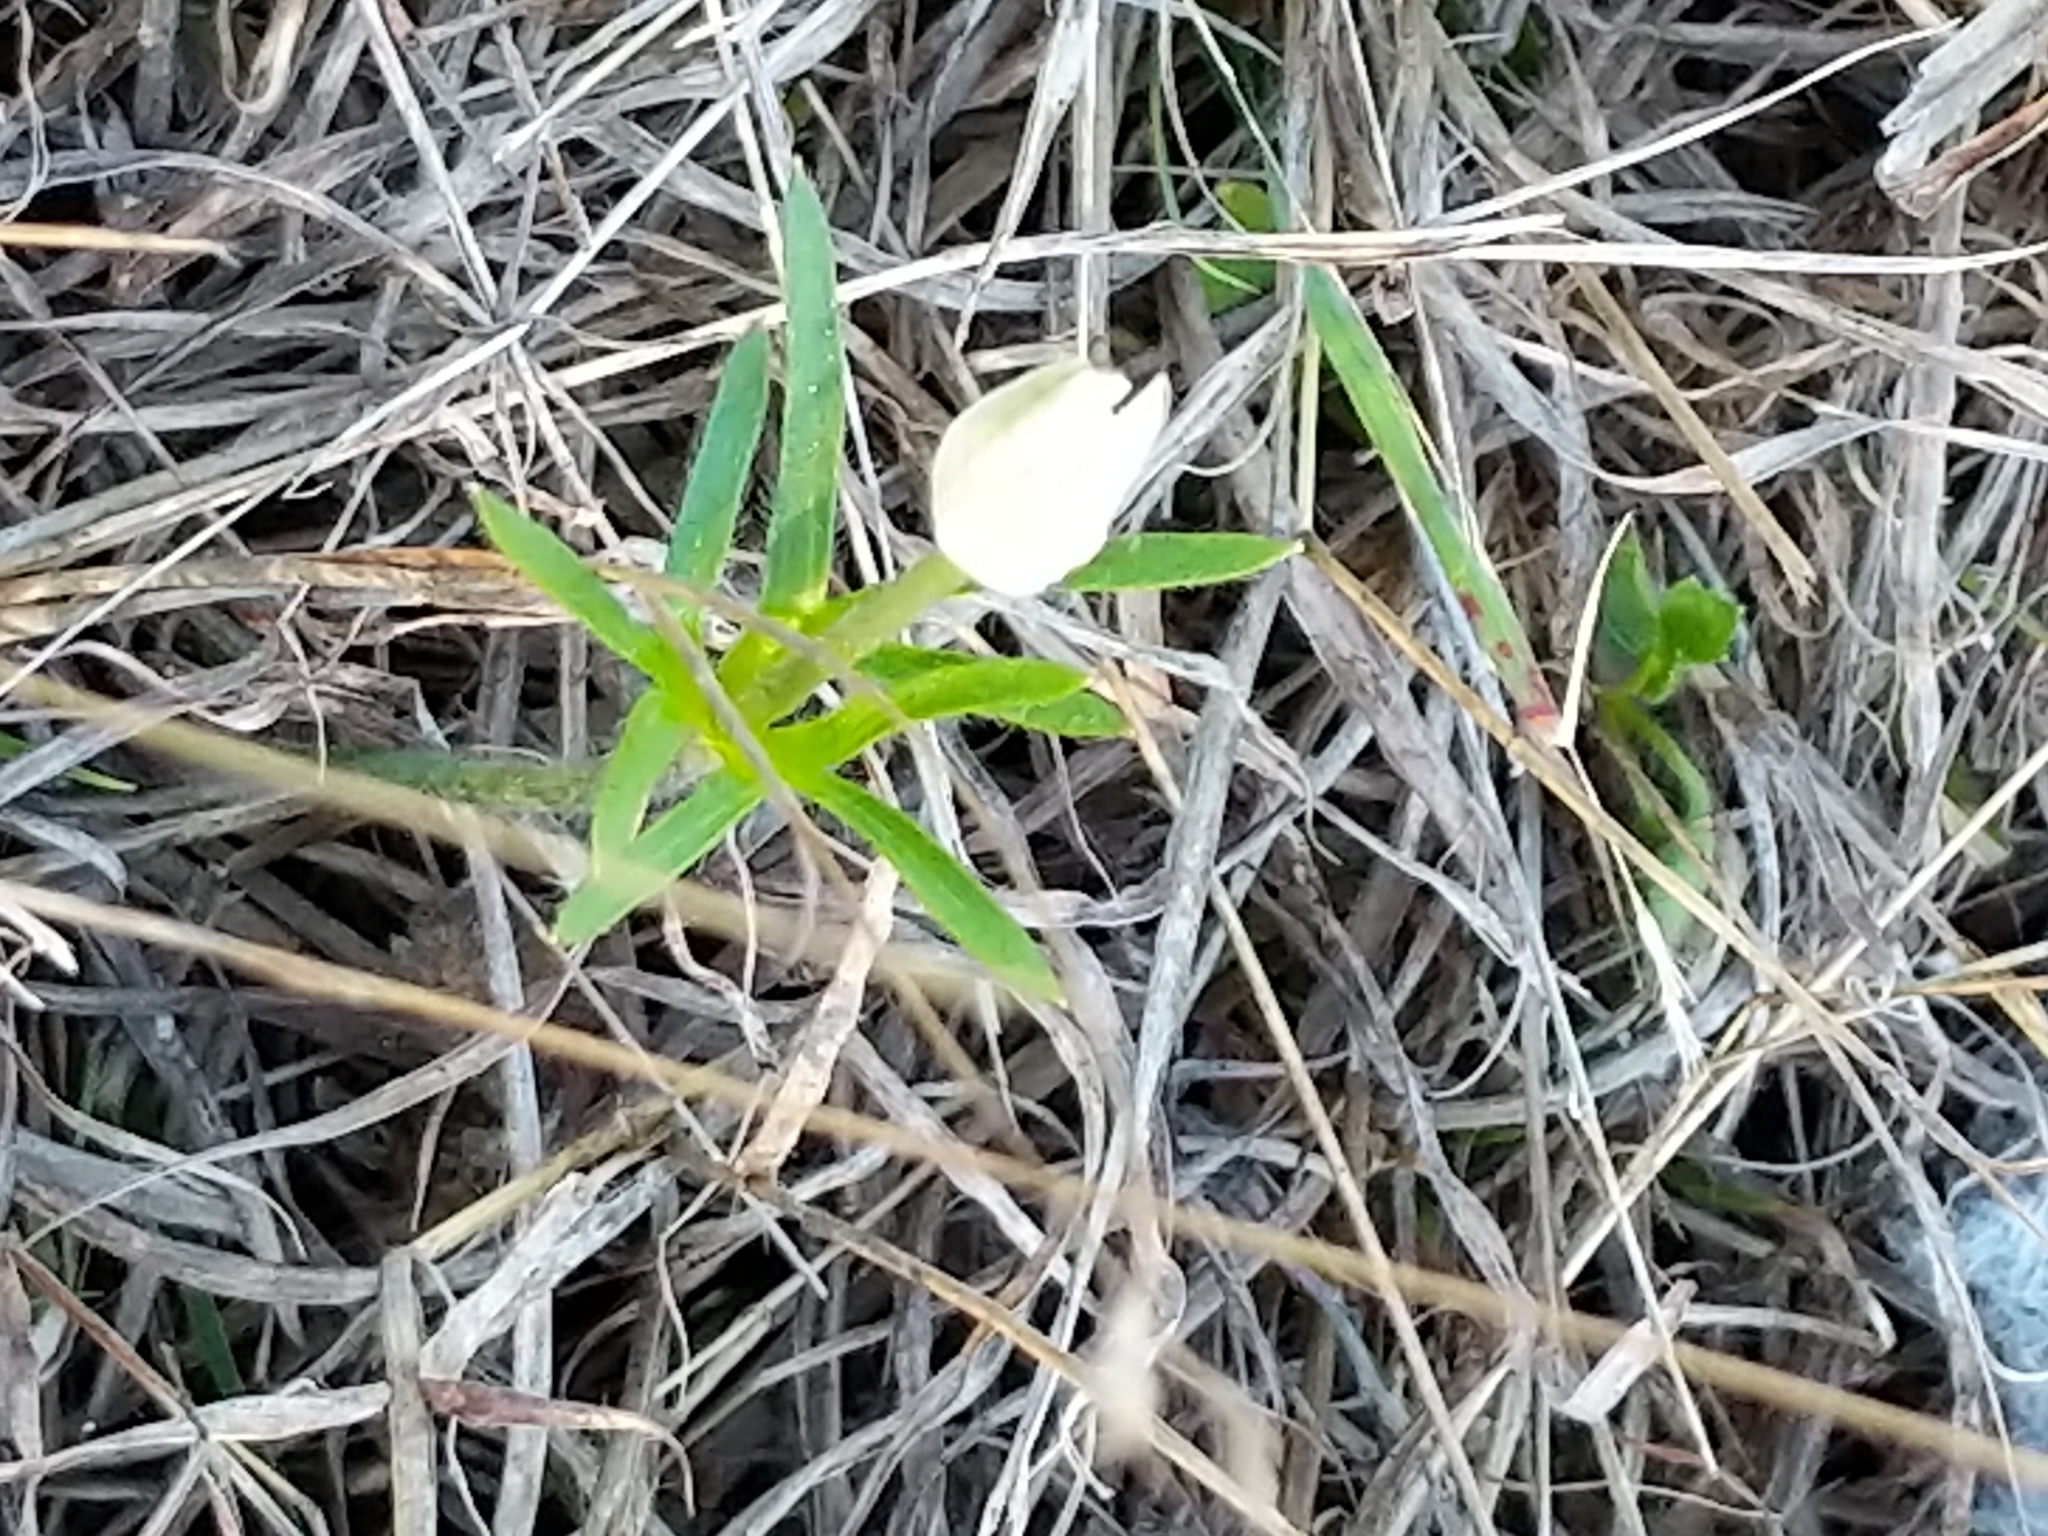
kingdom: Plantae
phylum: Tracheophyta
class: Magnoliopsida
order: Ranunculales
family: Ranunculaceae
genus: Anemone
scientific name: Anemone berlandieri
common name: Ten-petal anemone
